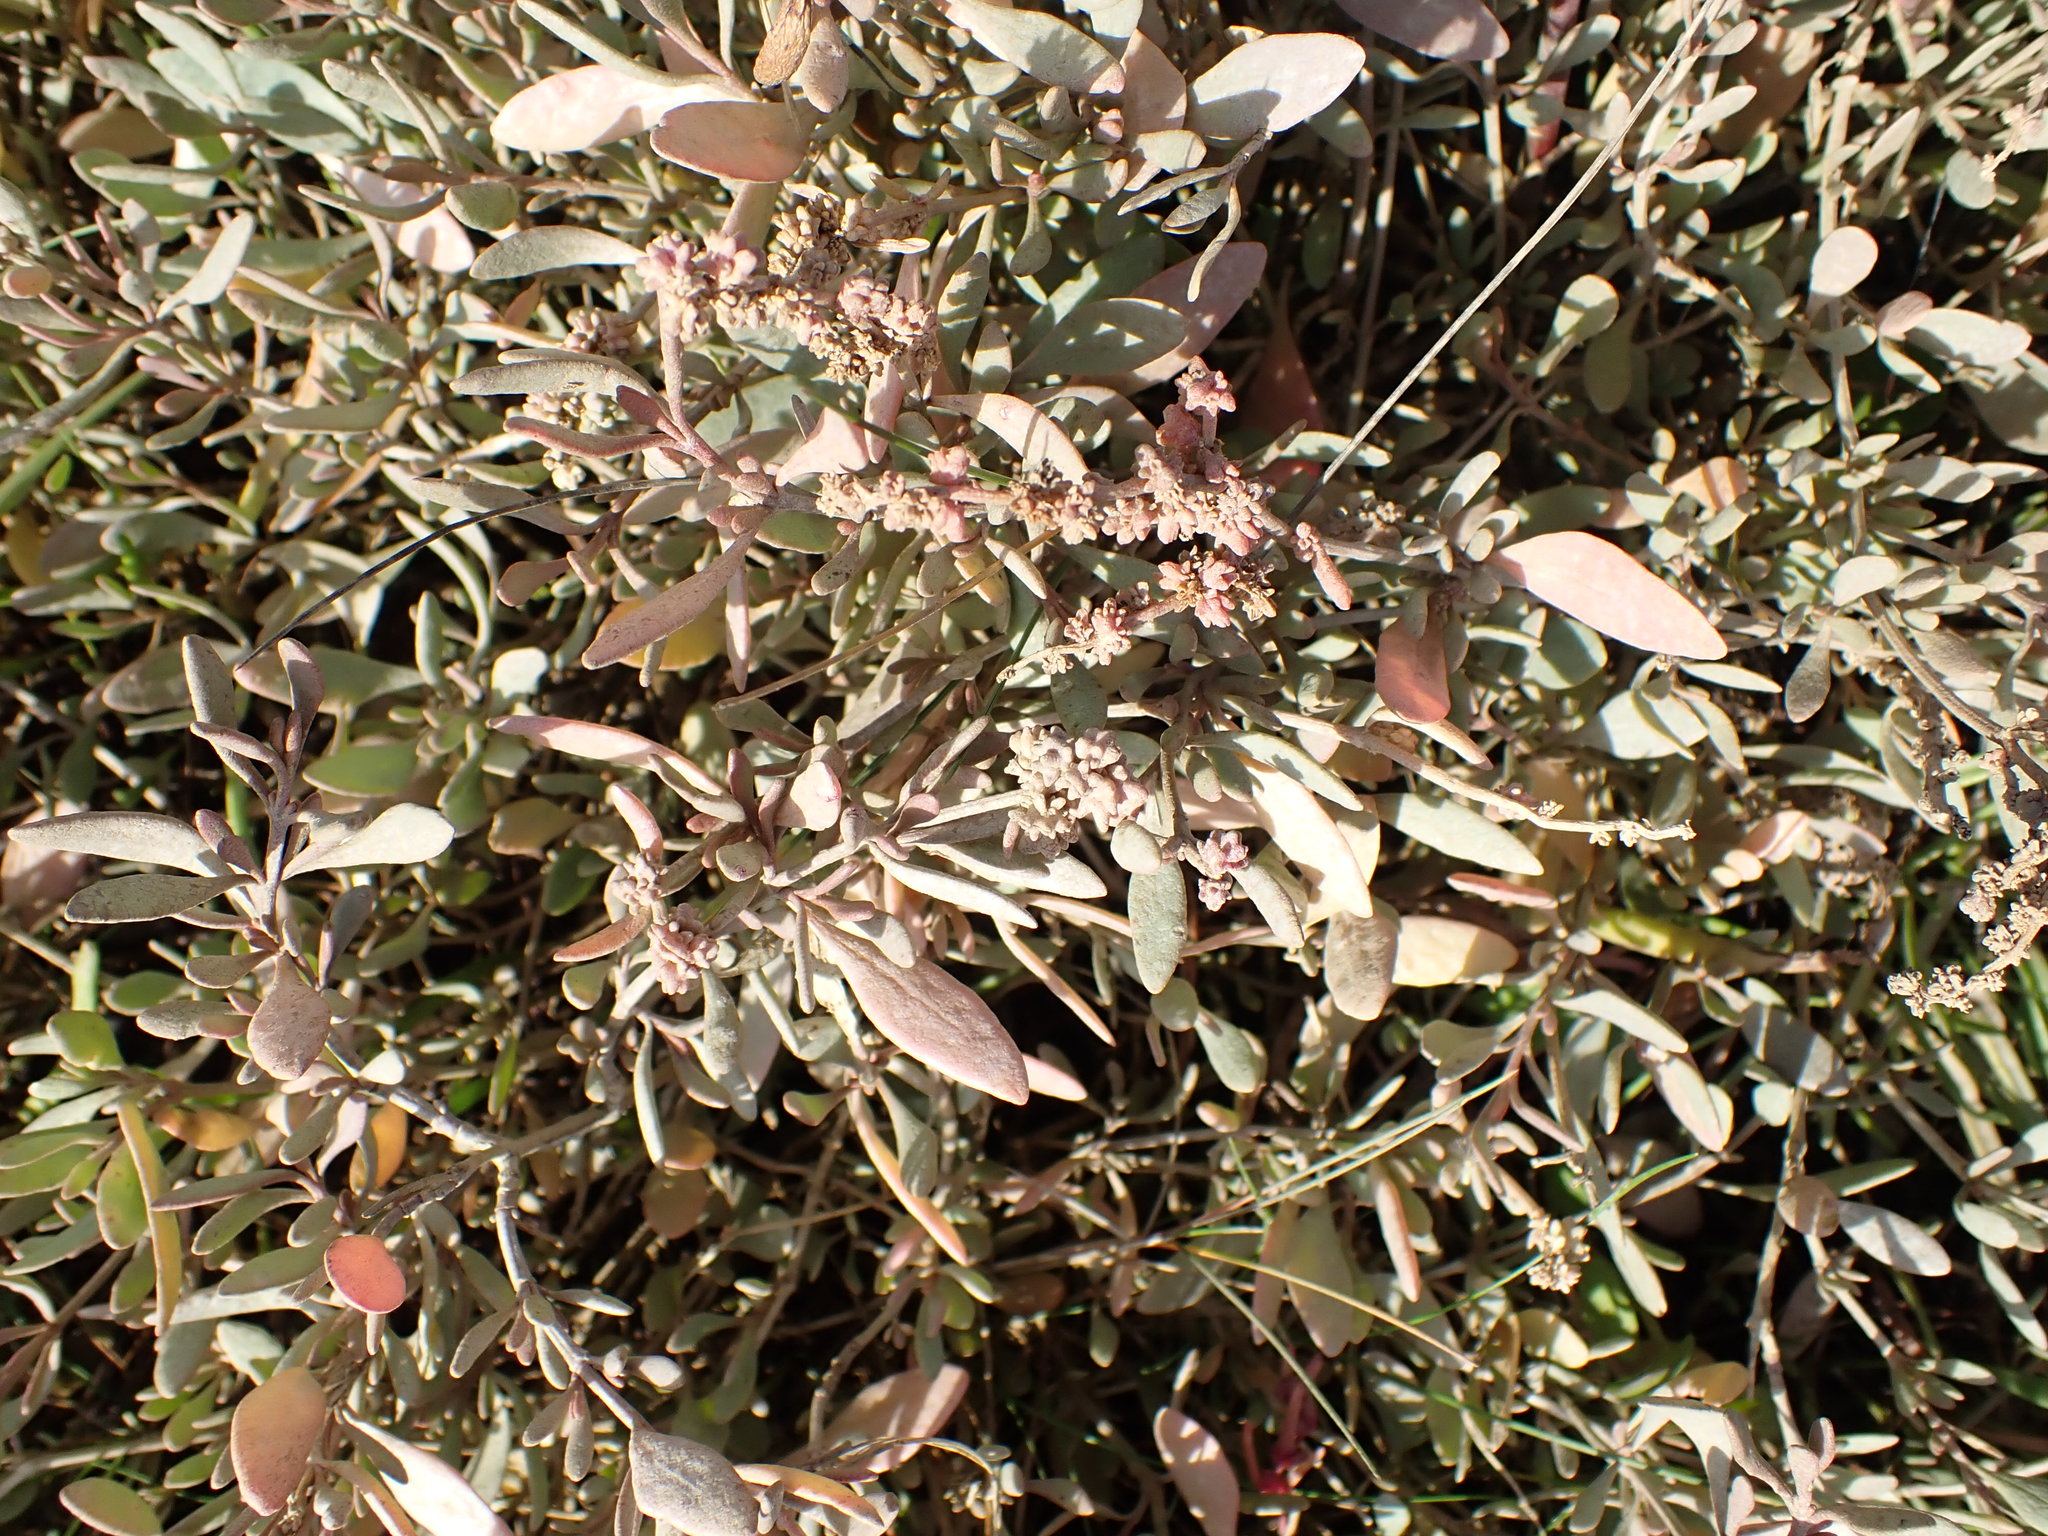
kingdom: Plantae
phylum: Tracheophyta
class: Magnoliopsida
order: Caryophyllales
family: Amaranthaceae
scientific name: Amaranthaceae
